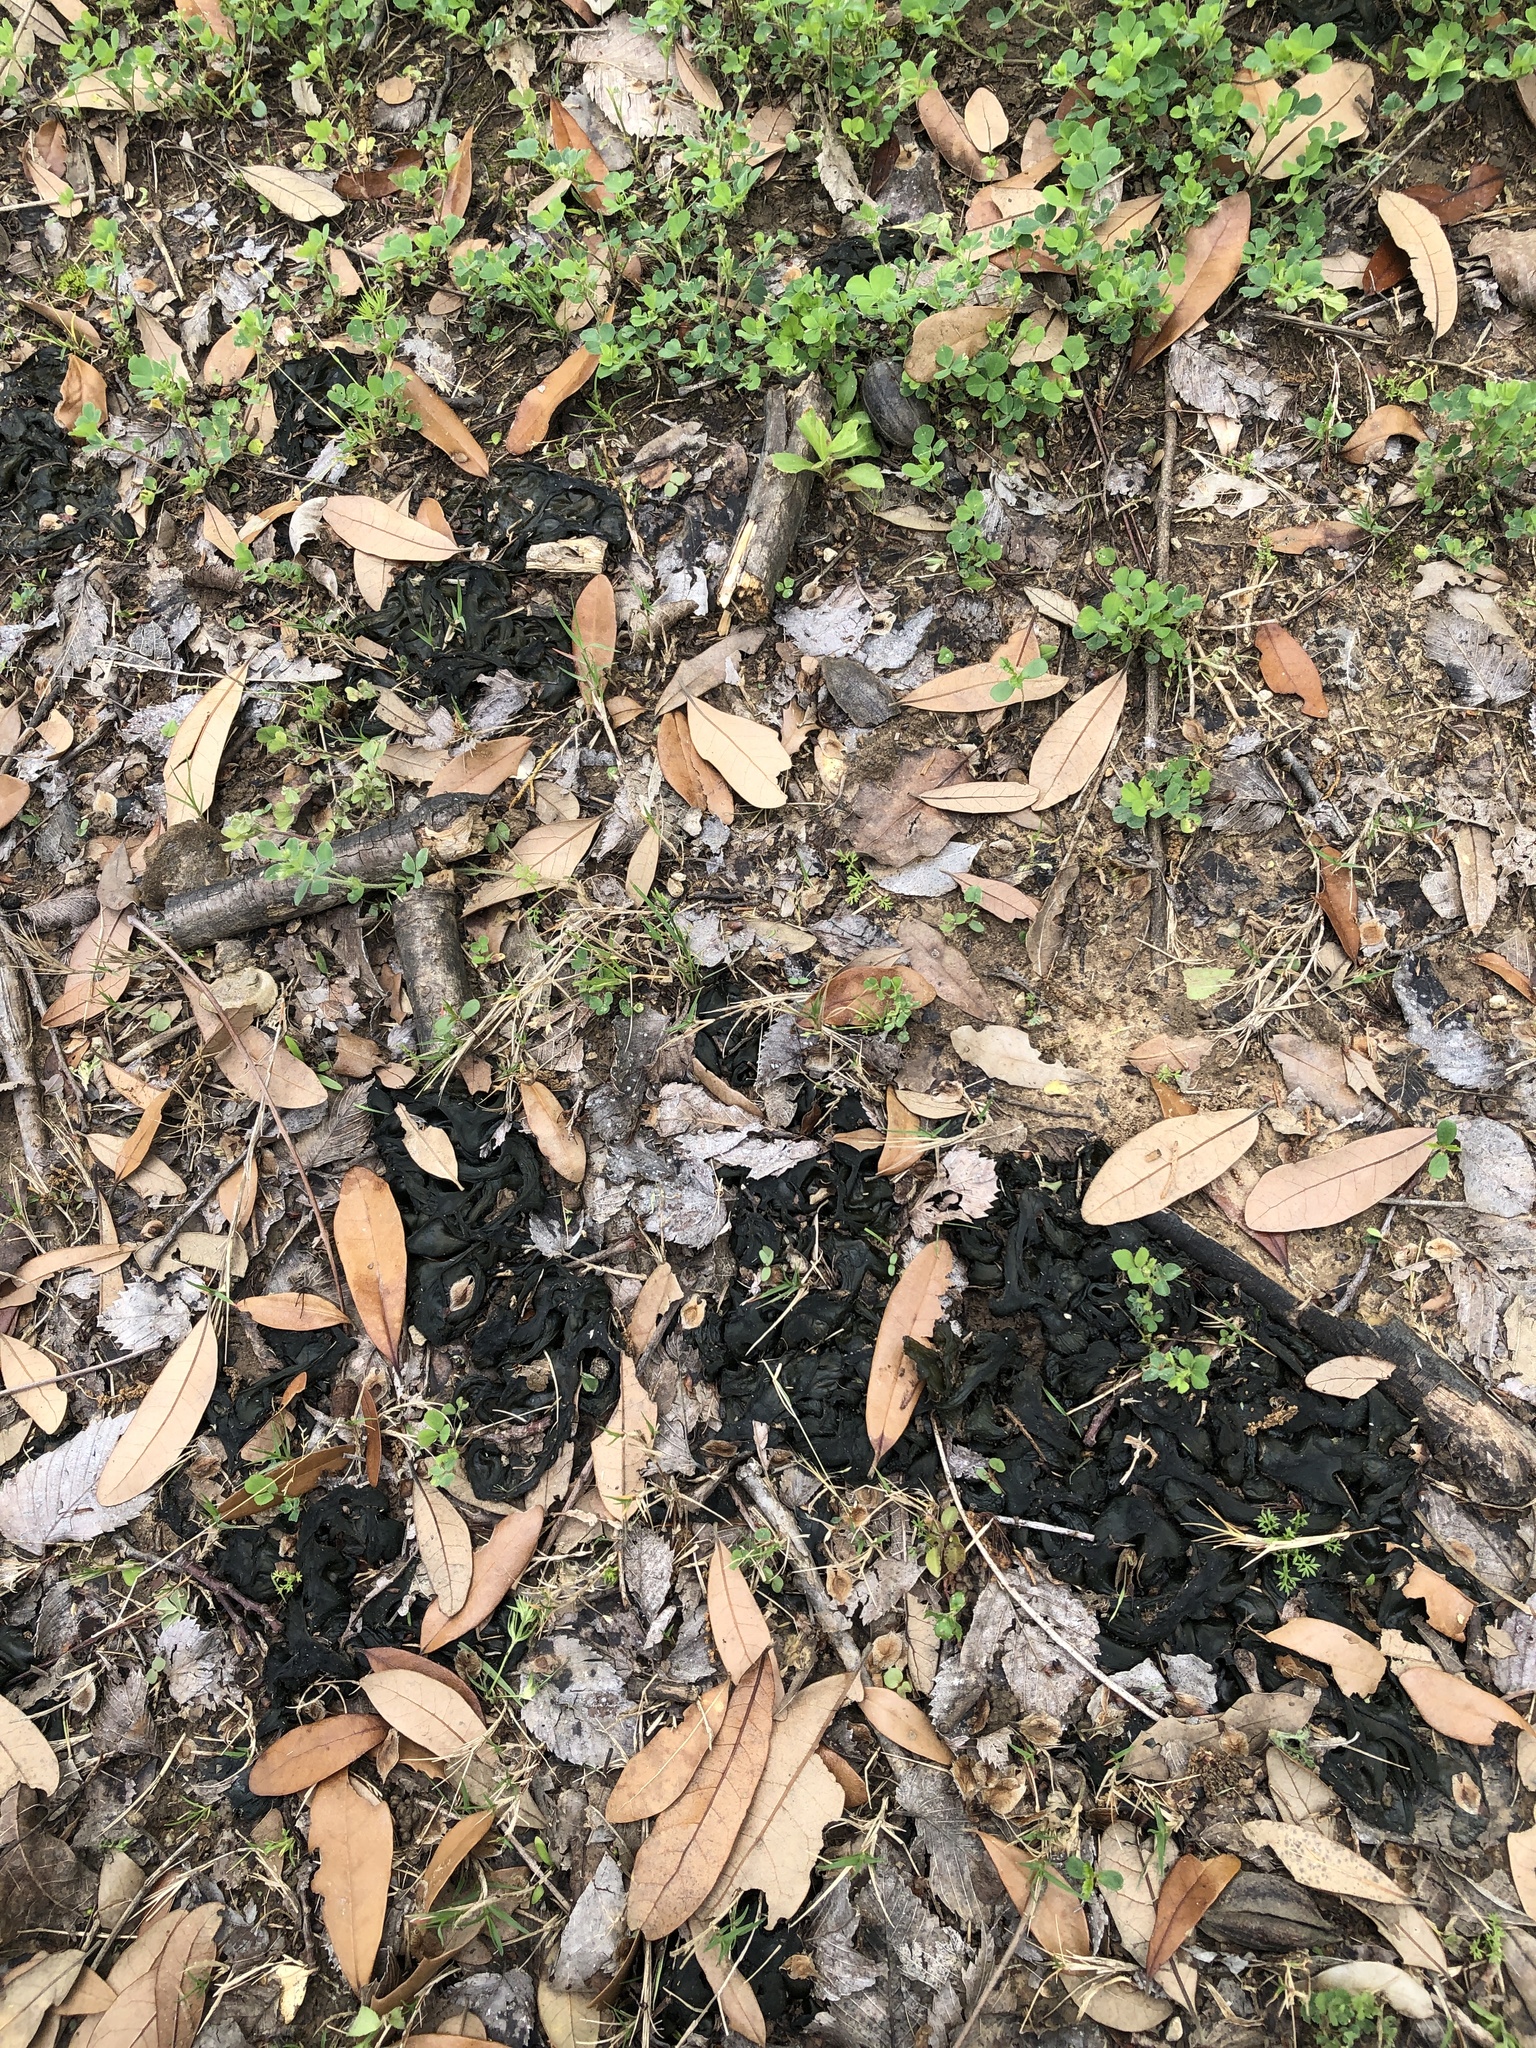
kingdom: Bacteria
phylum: Cyanobacteria
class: Cyanobacteriia
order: Cyanobacteriales
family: Nostocaceae
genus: Nostoc
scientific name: Nostoc commune
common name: Star jelly
